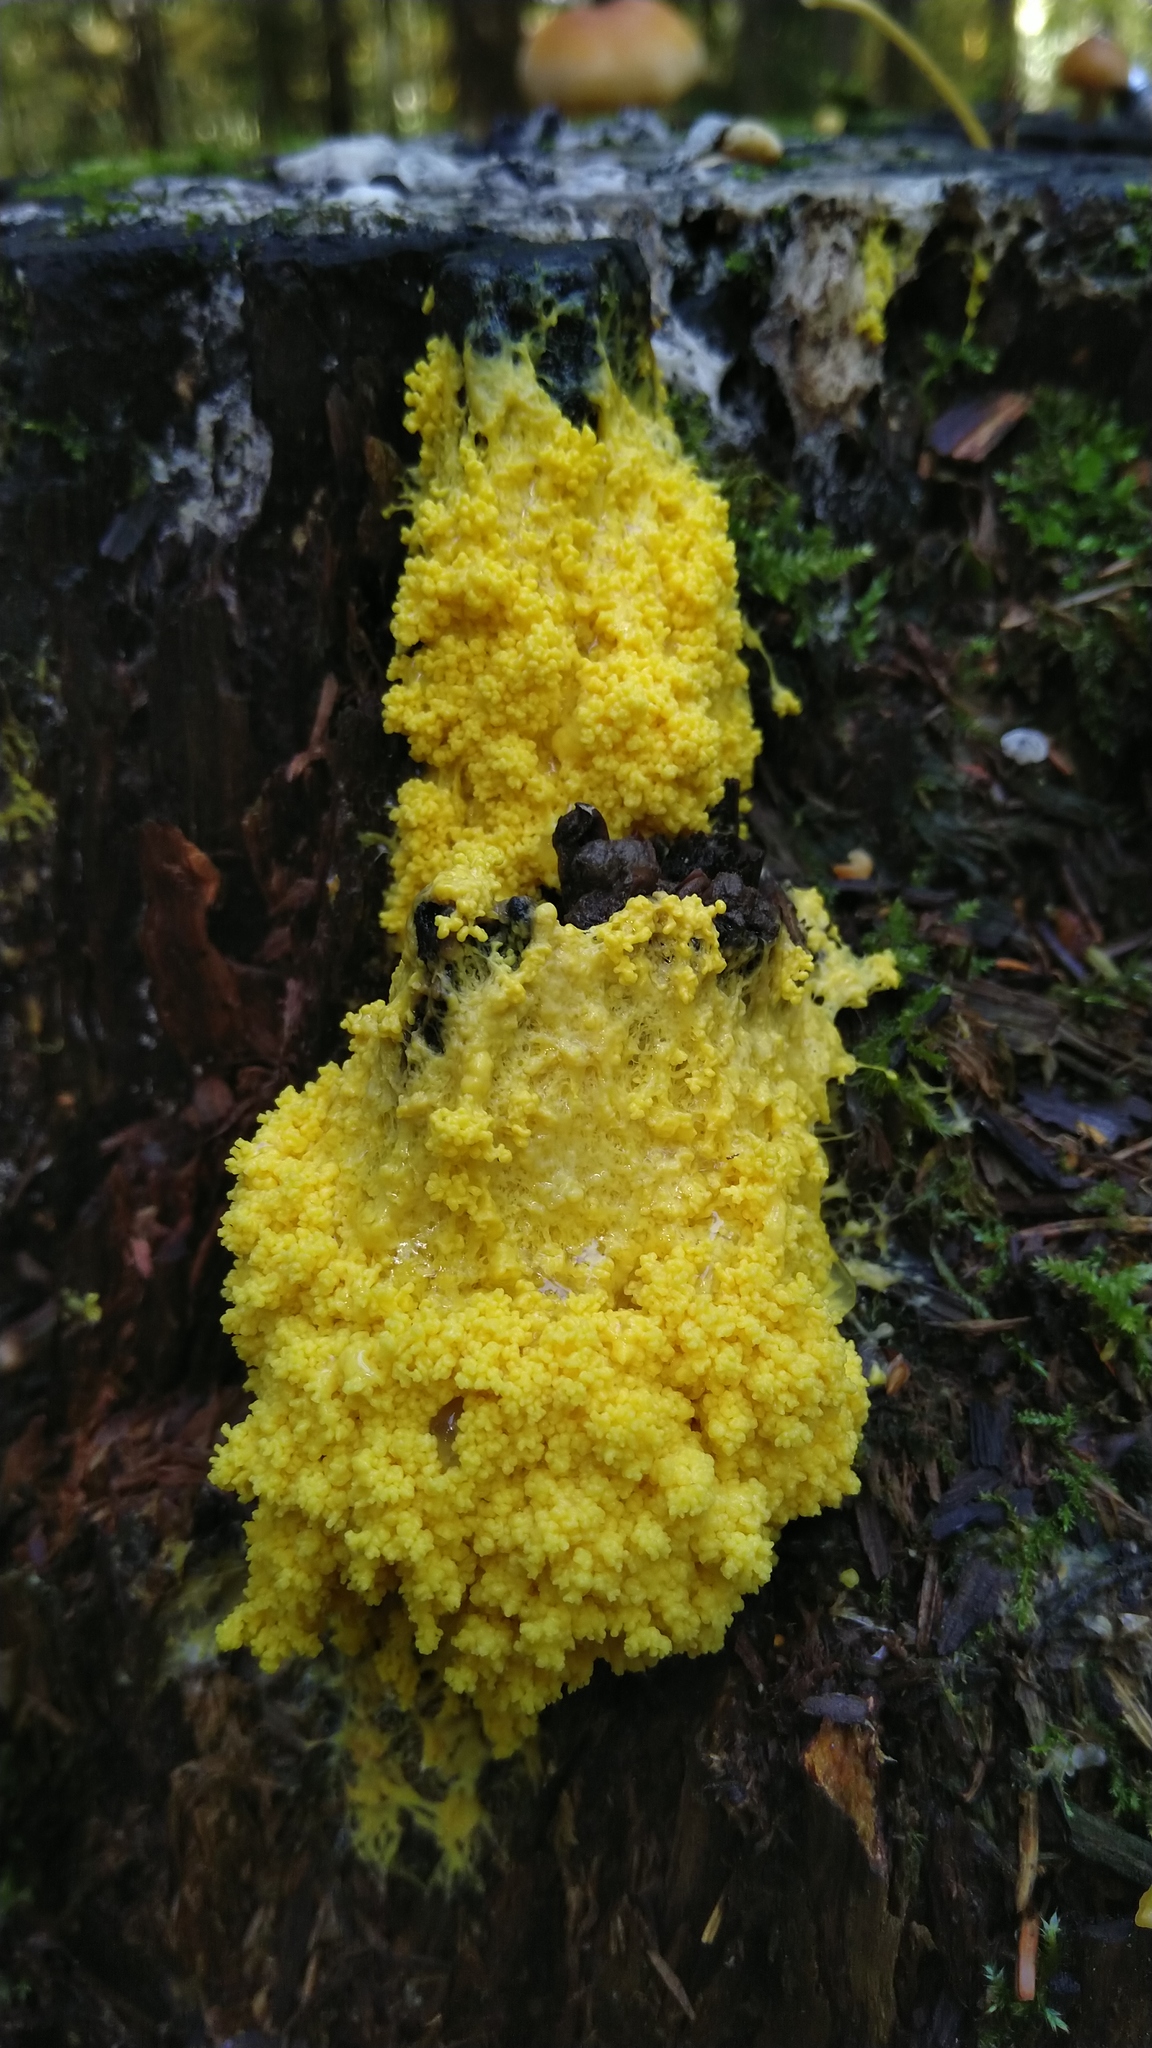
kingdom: Protozoa
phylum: Mycetozoa
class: Myxomycetes
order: Physarales
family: Physaraceae
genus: Fuligo
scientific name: Fuligo septica
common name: Dog vomit slime mold
